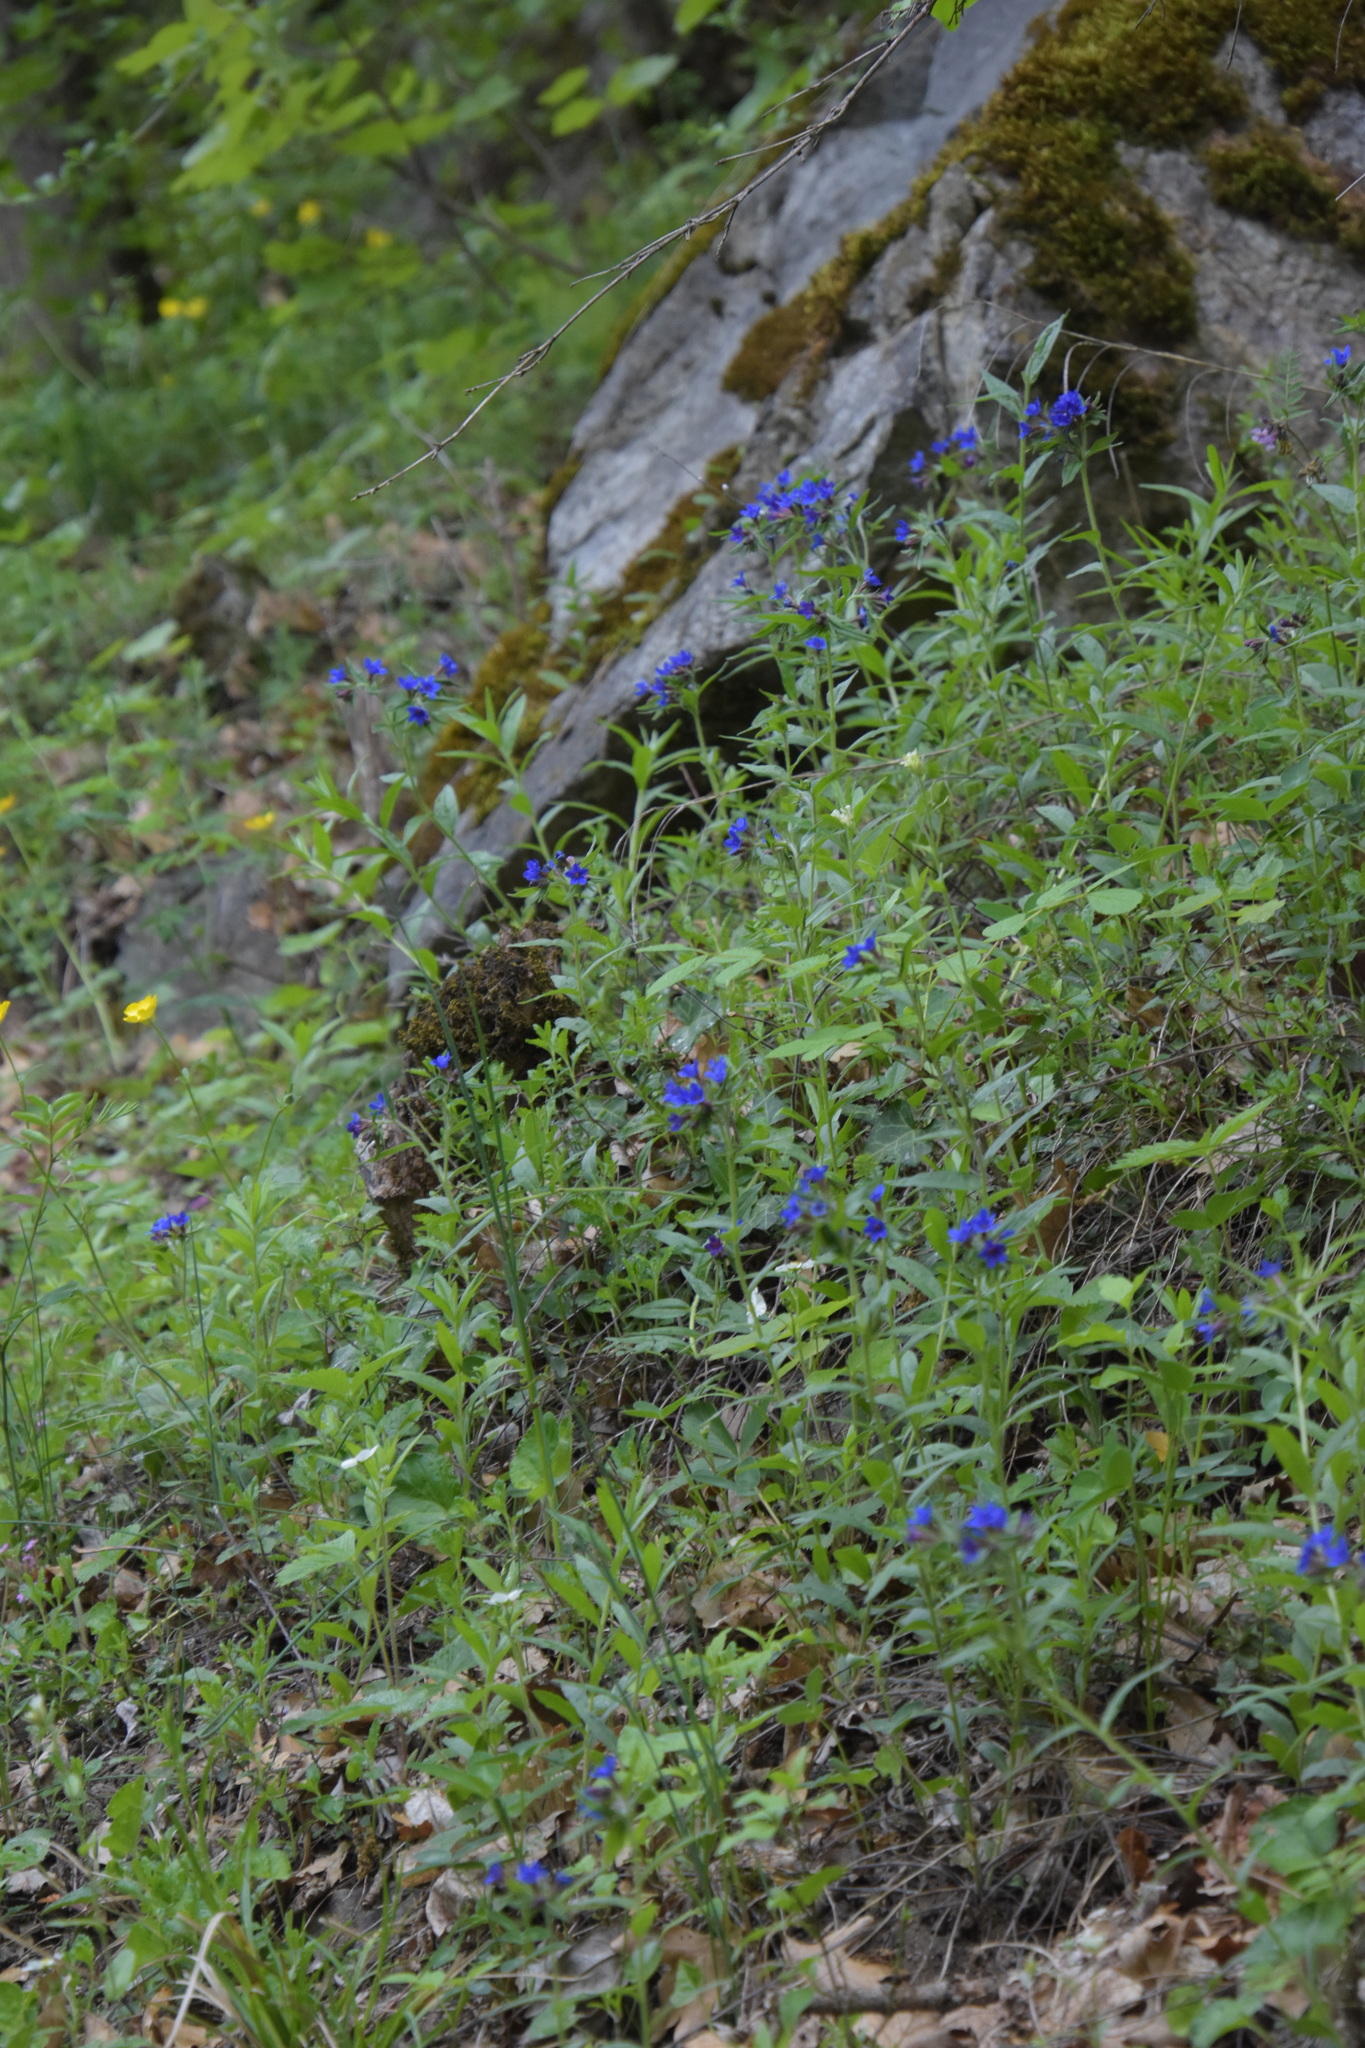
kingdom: Plantae
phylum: Tracheophyta
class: Magnoliopsida
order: Boraginales
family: Boraginaceae
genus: Aegonychon
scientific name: Aegonychon purpurocaeruleum
